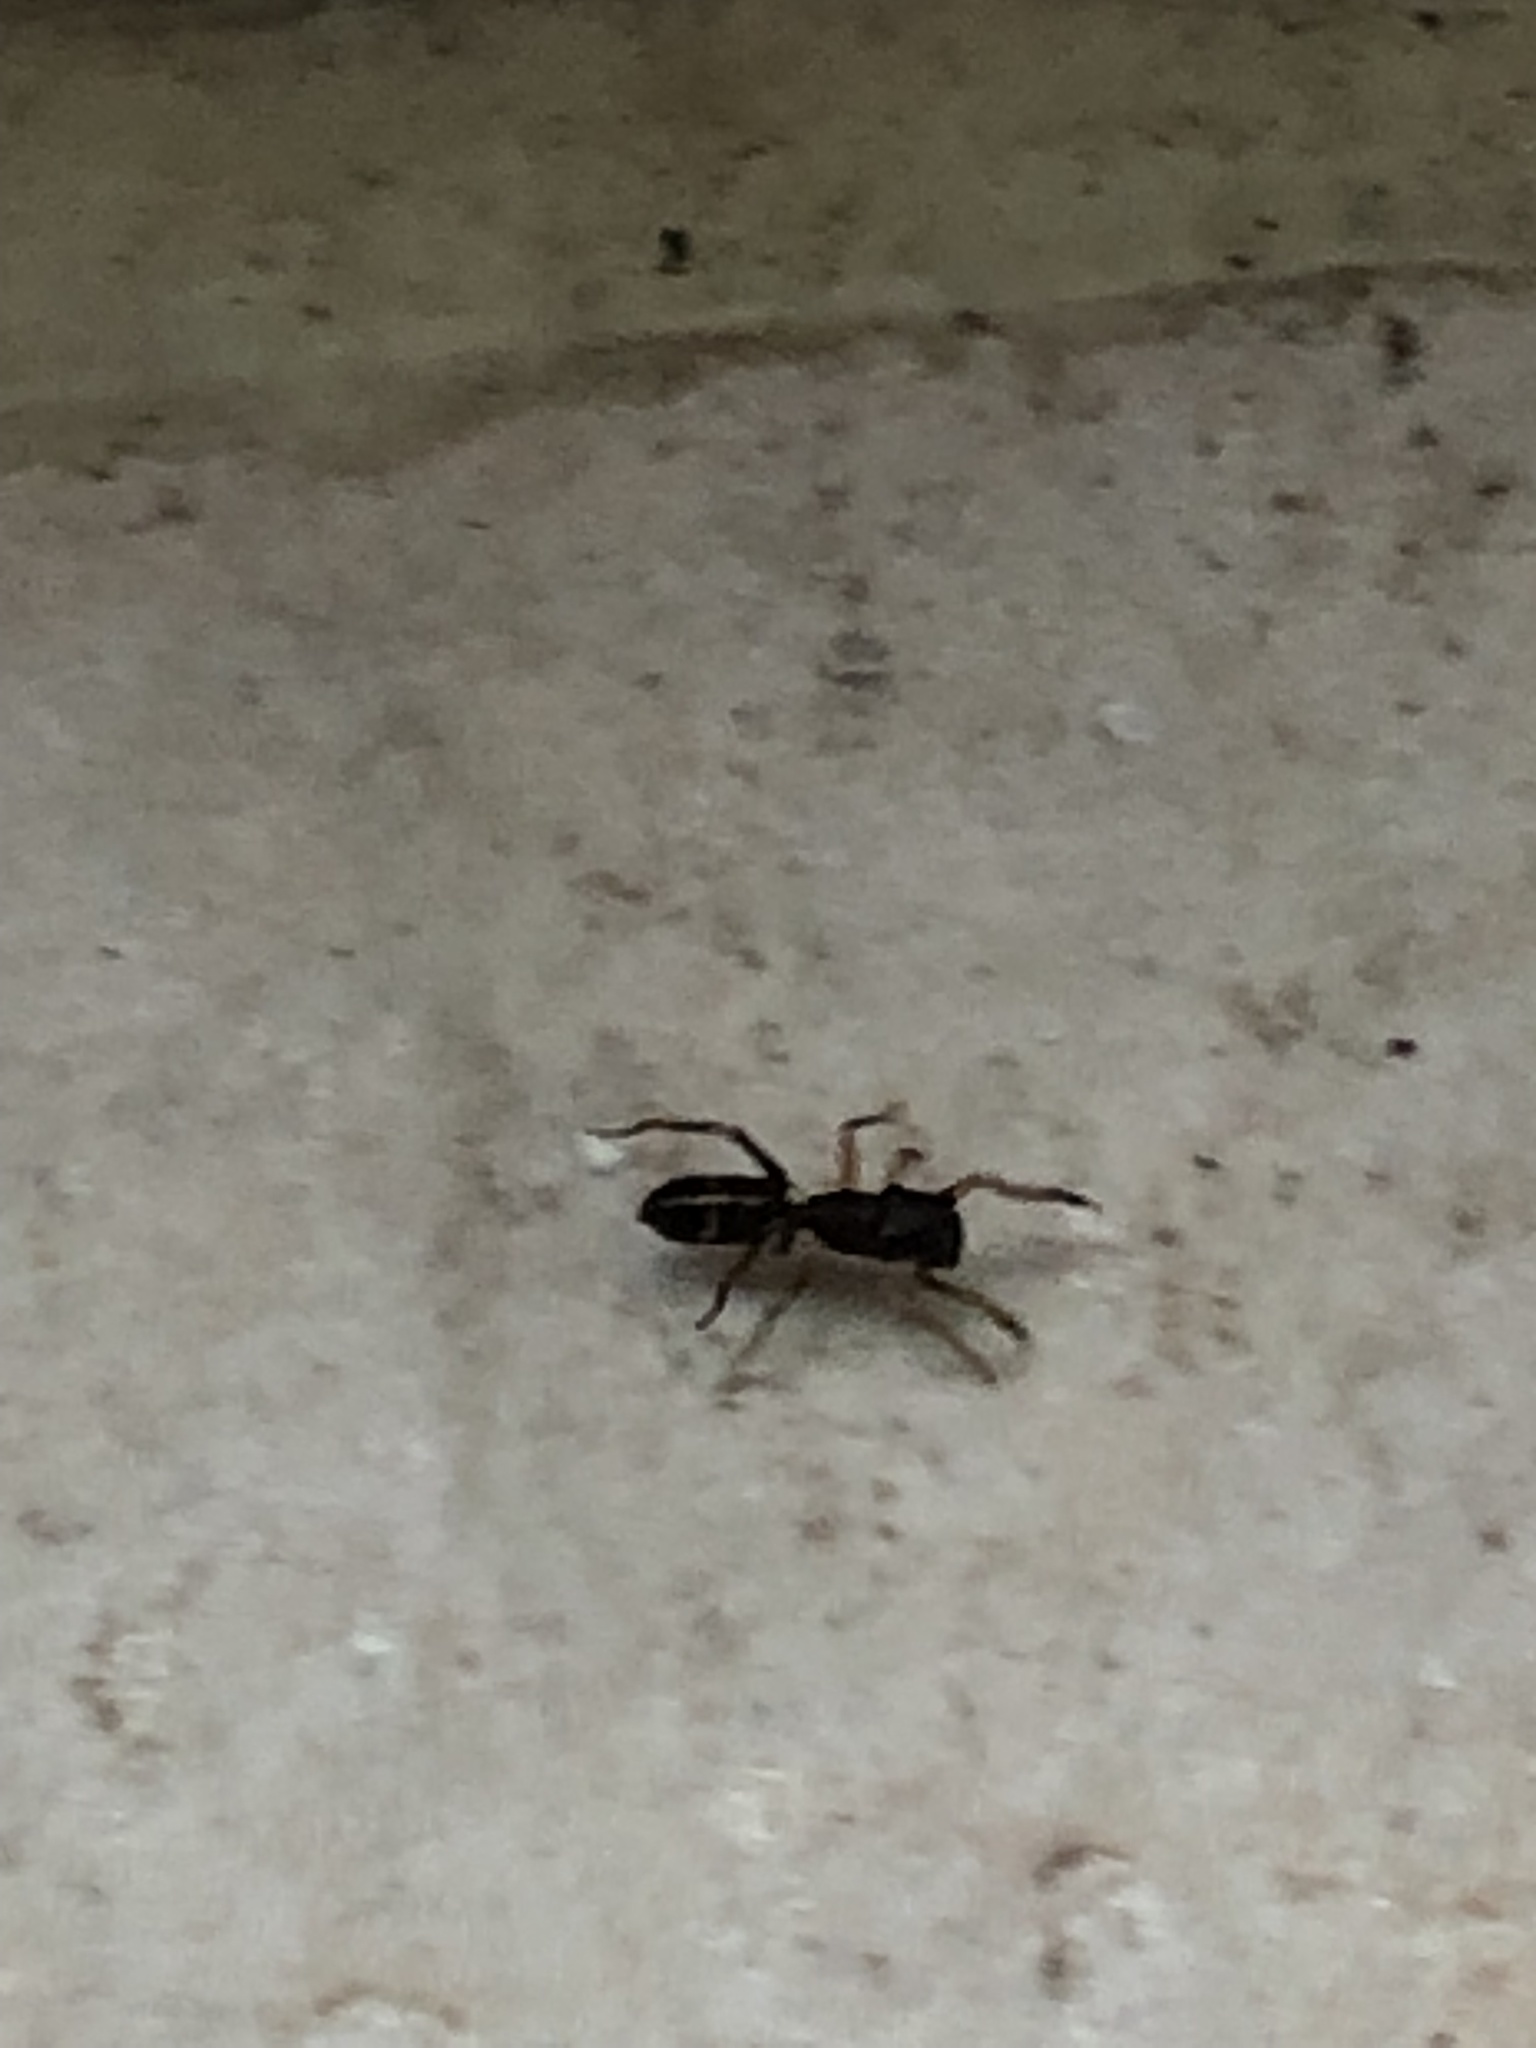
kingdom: Animalia
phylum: Arthropoda
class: Arachnida
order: Araneae
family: Salticidae
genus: Myrmarachne
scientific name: Myrmarachne formicaria
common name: Ant mimic jumping spider
